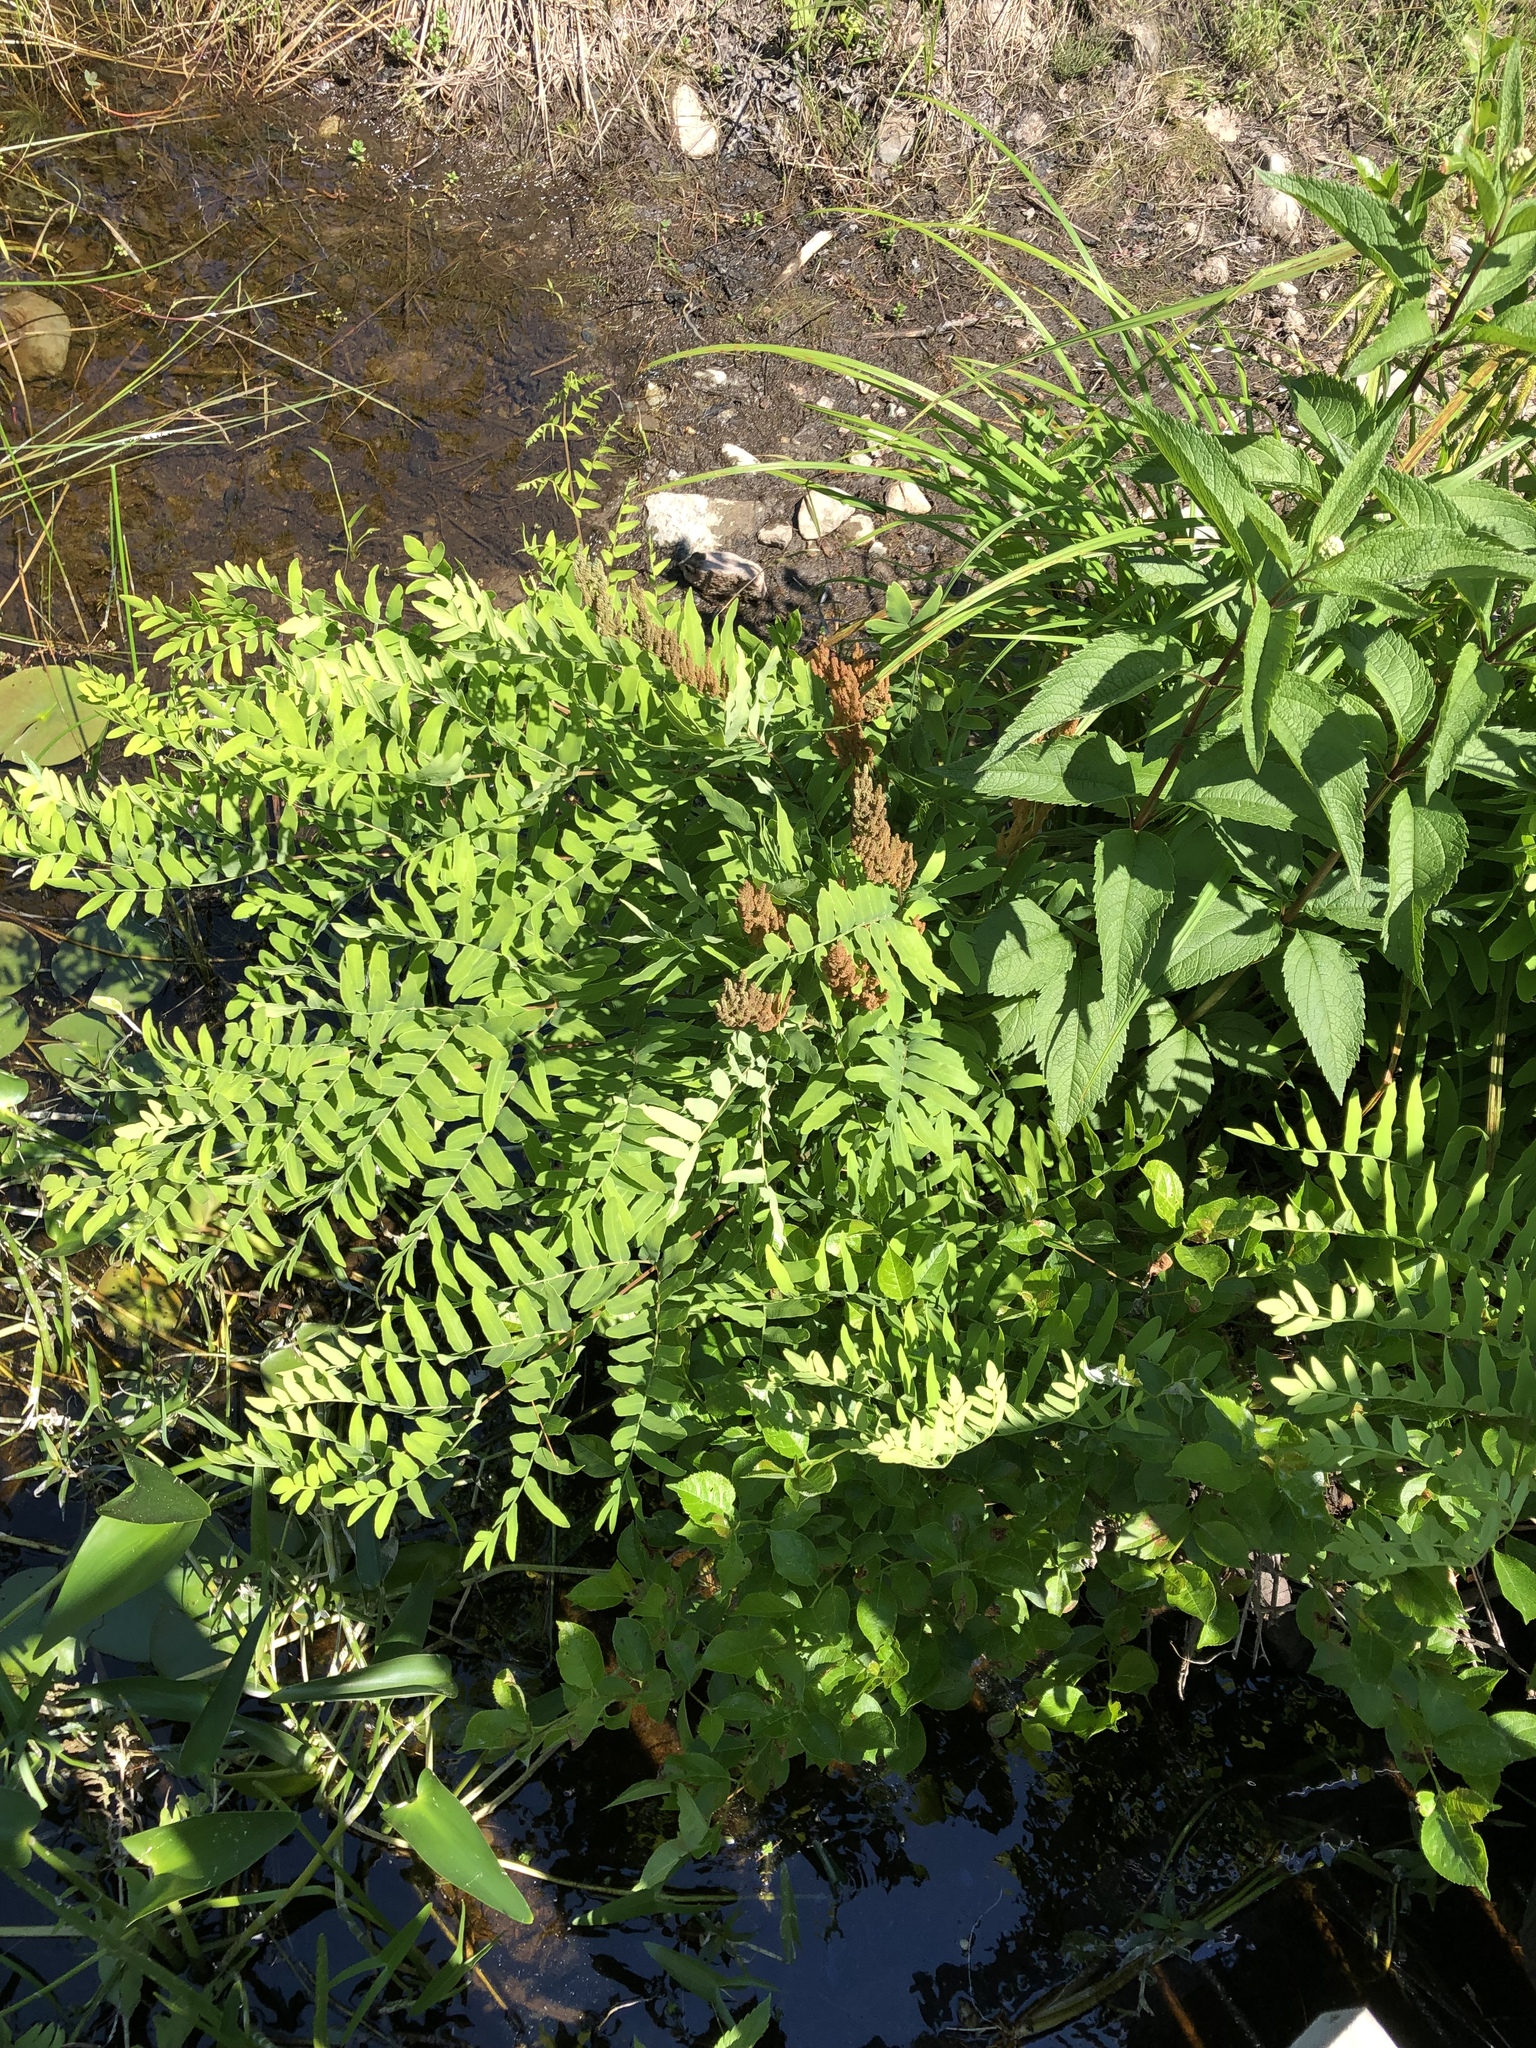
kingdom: Plantae
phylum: Tracheophyta
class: Polypodiopsida
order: Osmundales
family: Osmundaceae
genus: Osmunda
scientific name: Osmunda spectabilis
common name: American royal fern
